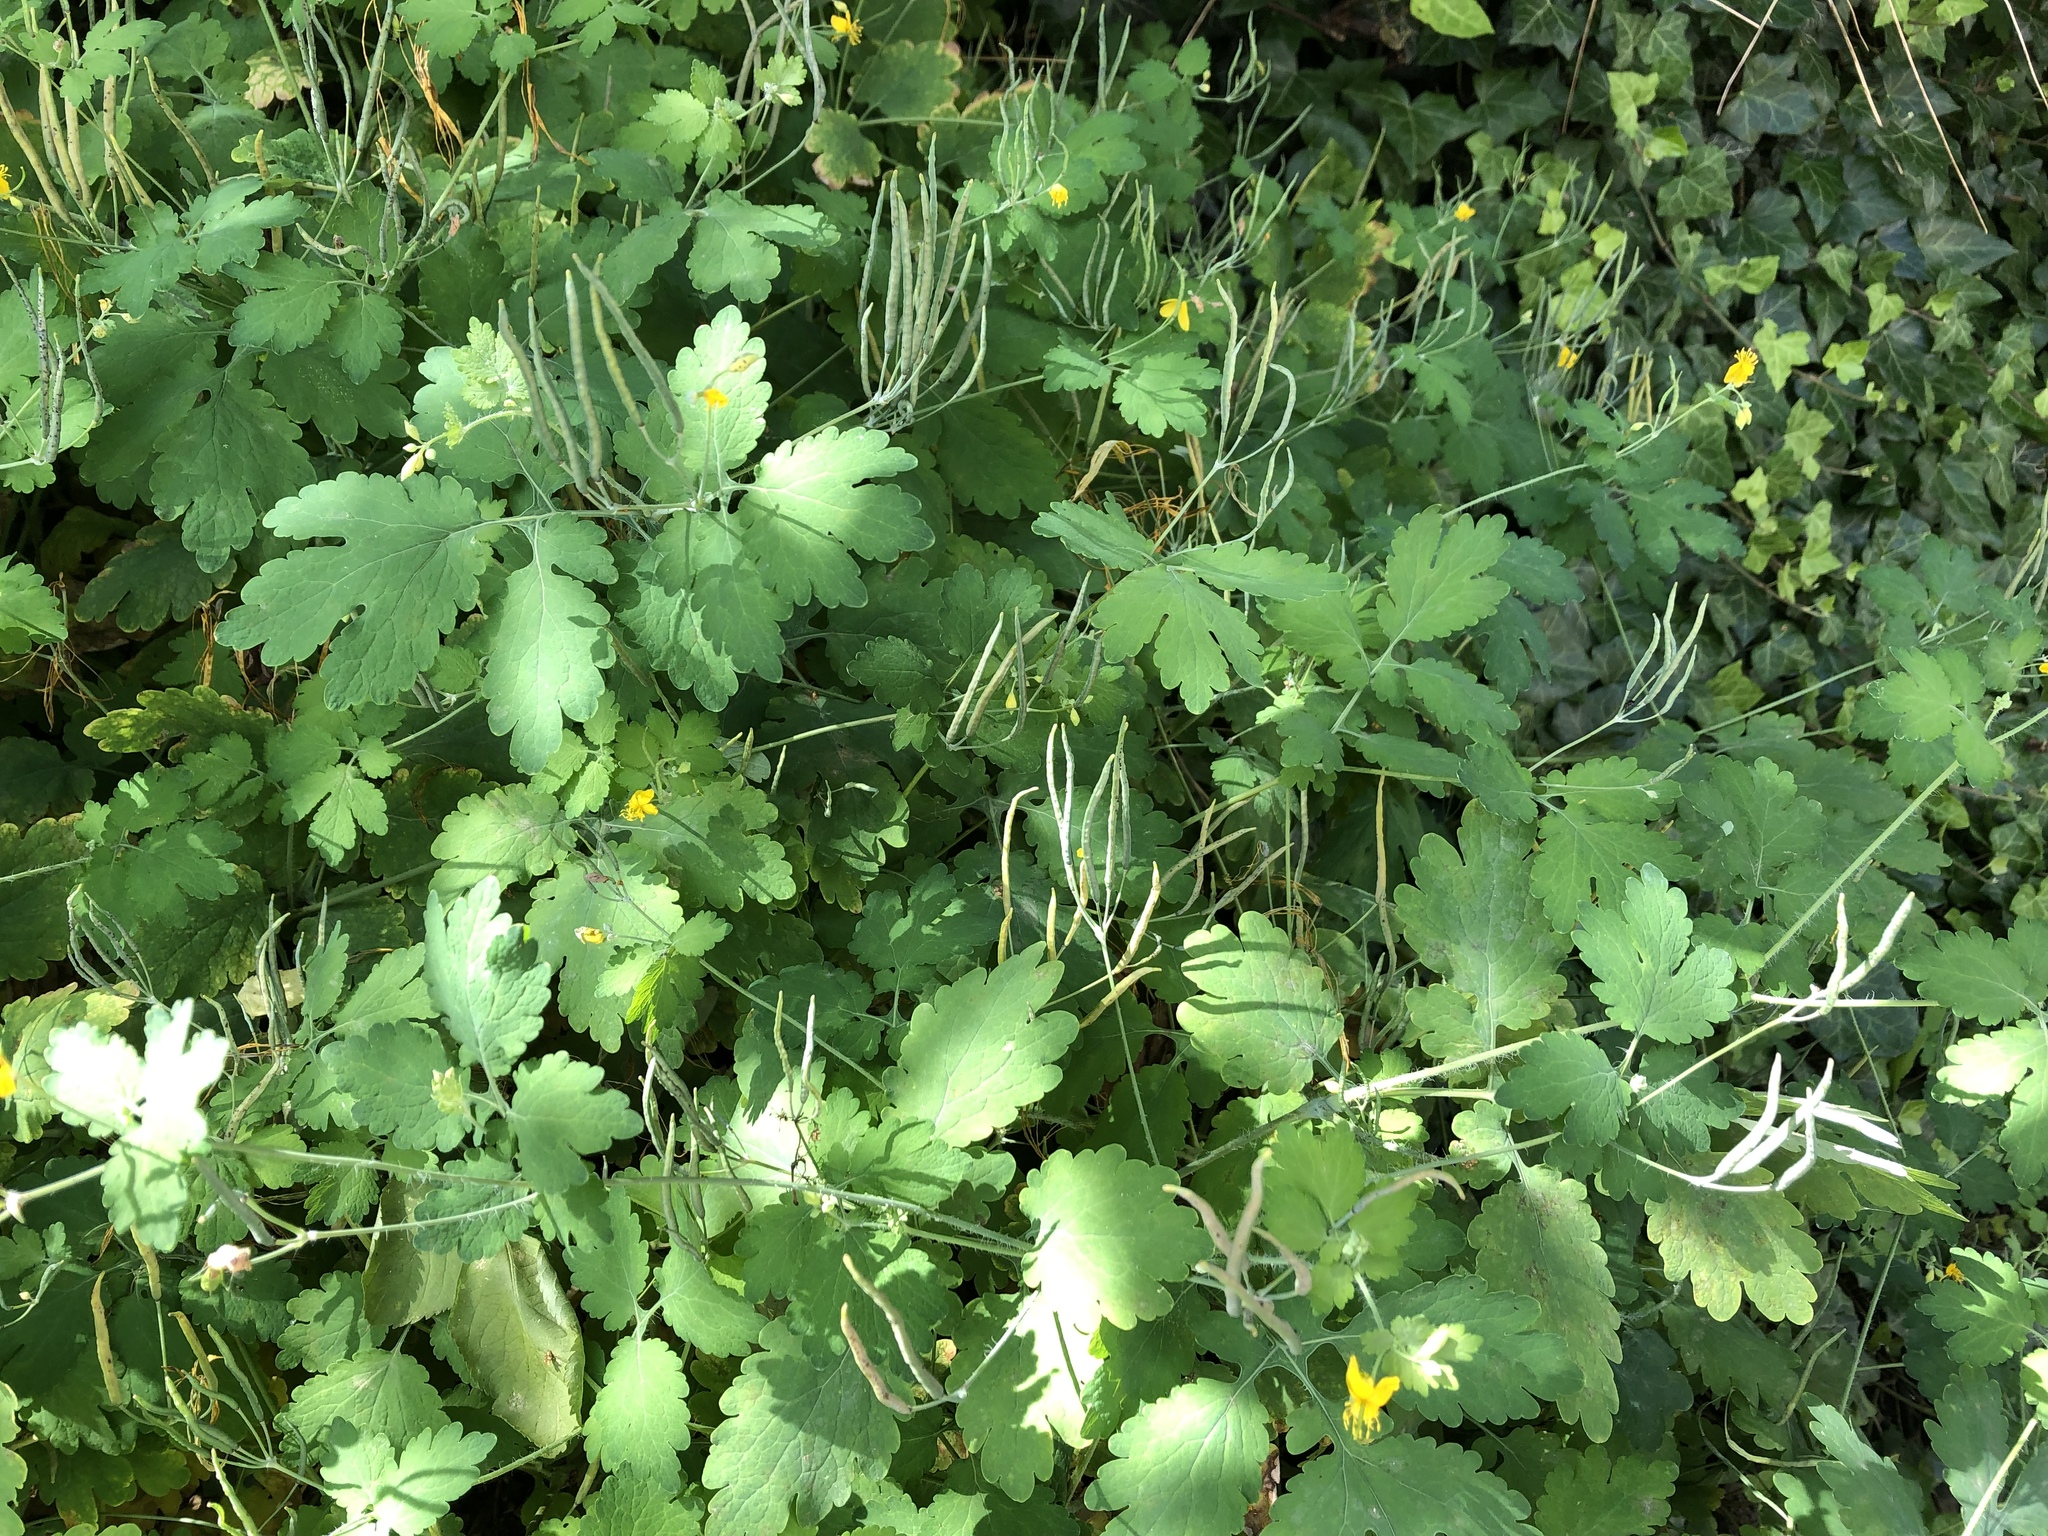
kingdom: Plantae
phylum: Tracheophyta
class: Magnoliopsida
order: Ranunculales
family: Papaveraceae
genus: Chelidonium
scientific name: Chelidonium majus
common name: Greater celandine
